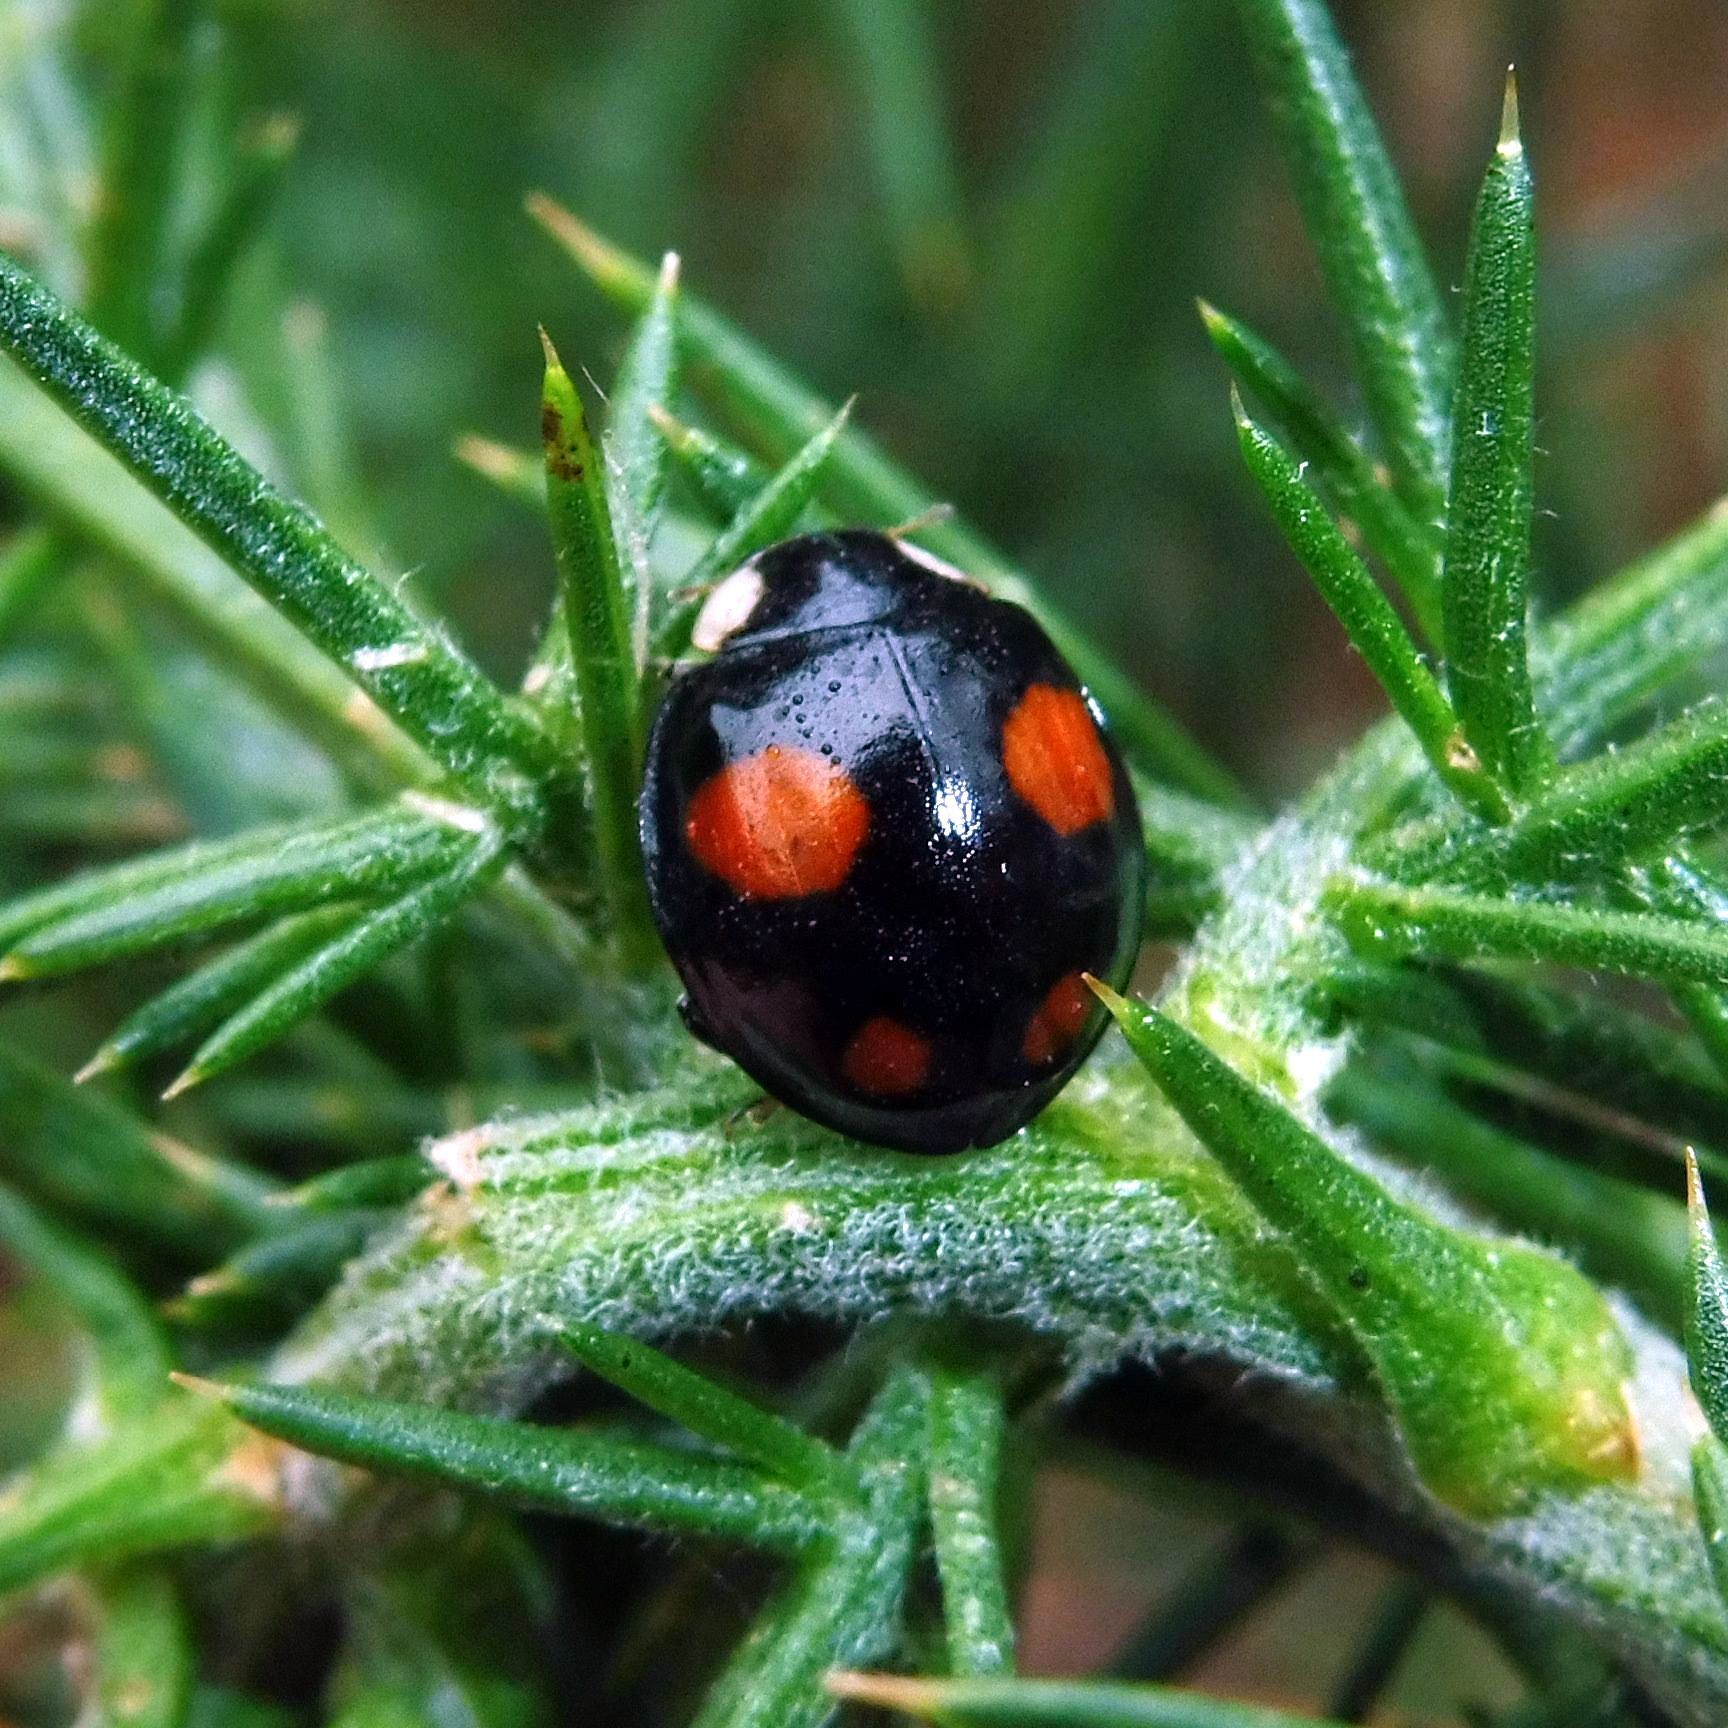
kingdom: Animalia
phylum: Arthropoda
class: Insecta
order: Coleoptera
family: Coccinellidae
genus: Harmonia
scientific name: Harmonia axyridis
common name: Harlequin ladybird
